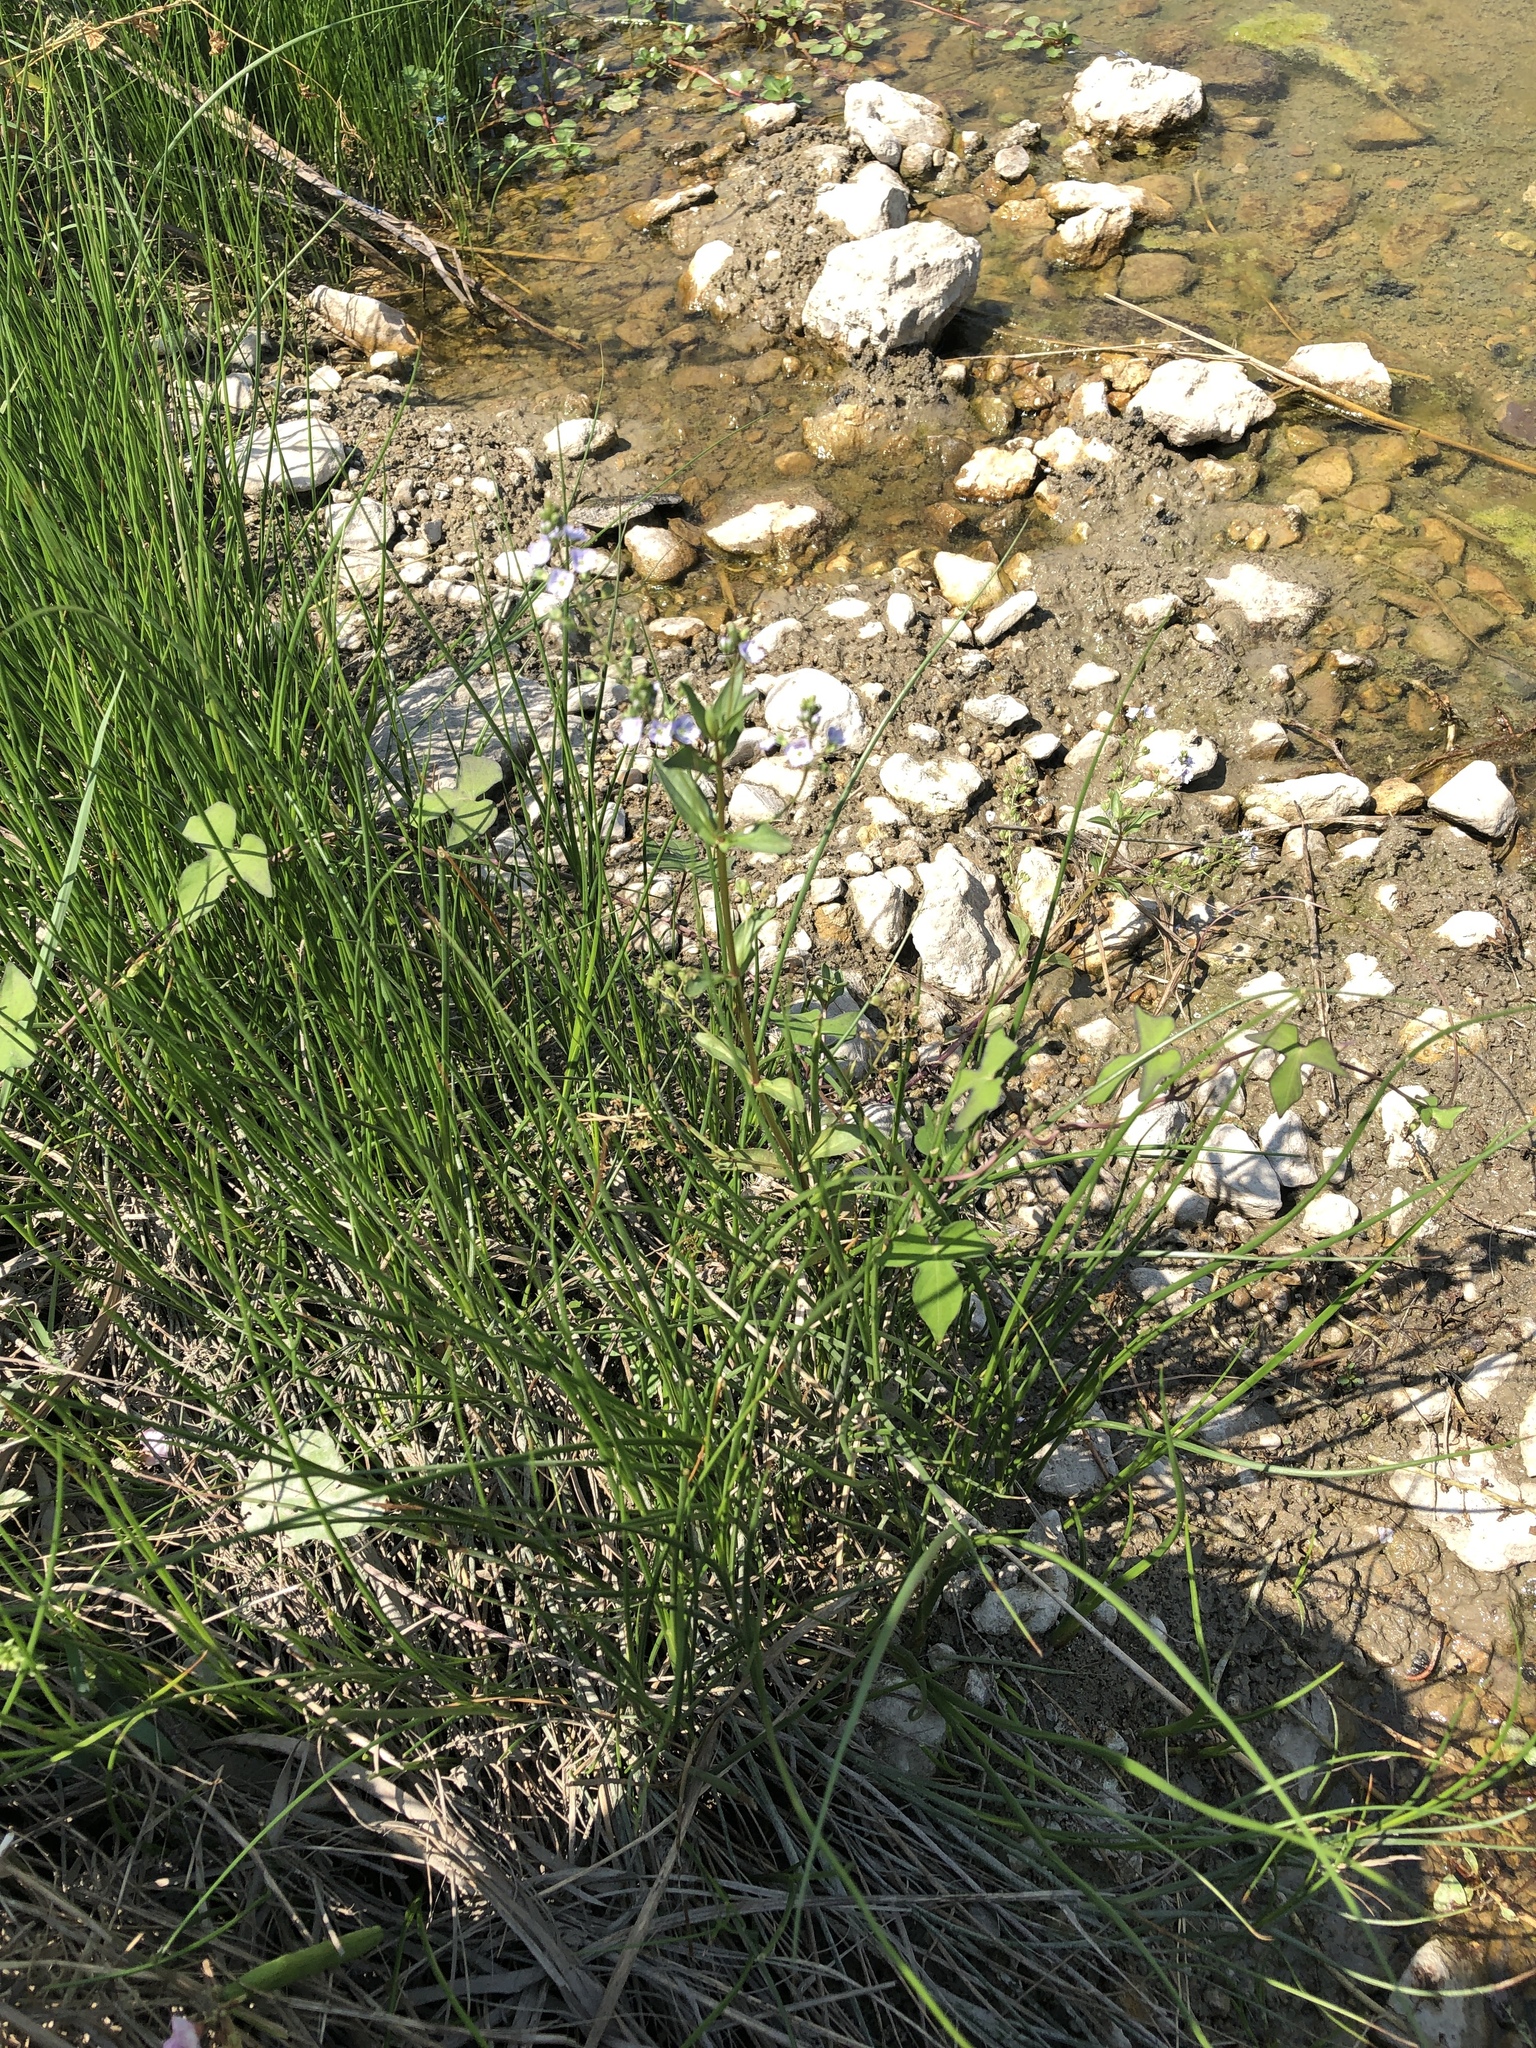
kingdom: Plantae
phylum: Tracheophyta
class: Magnoliopsida
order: Lamiales
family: Plantaginaceae
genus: Veronica
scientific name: Veronica anagallis-aquatica
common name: Water speedwell
